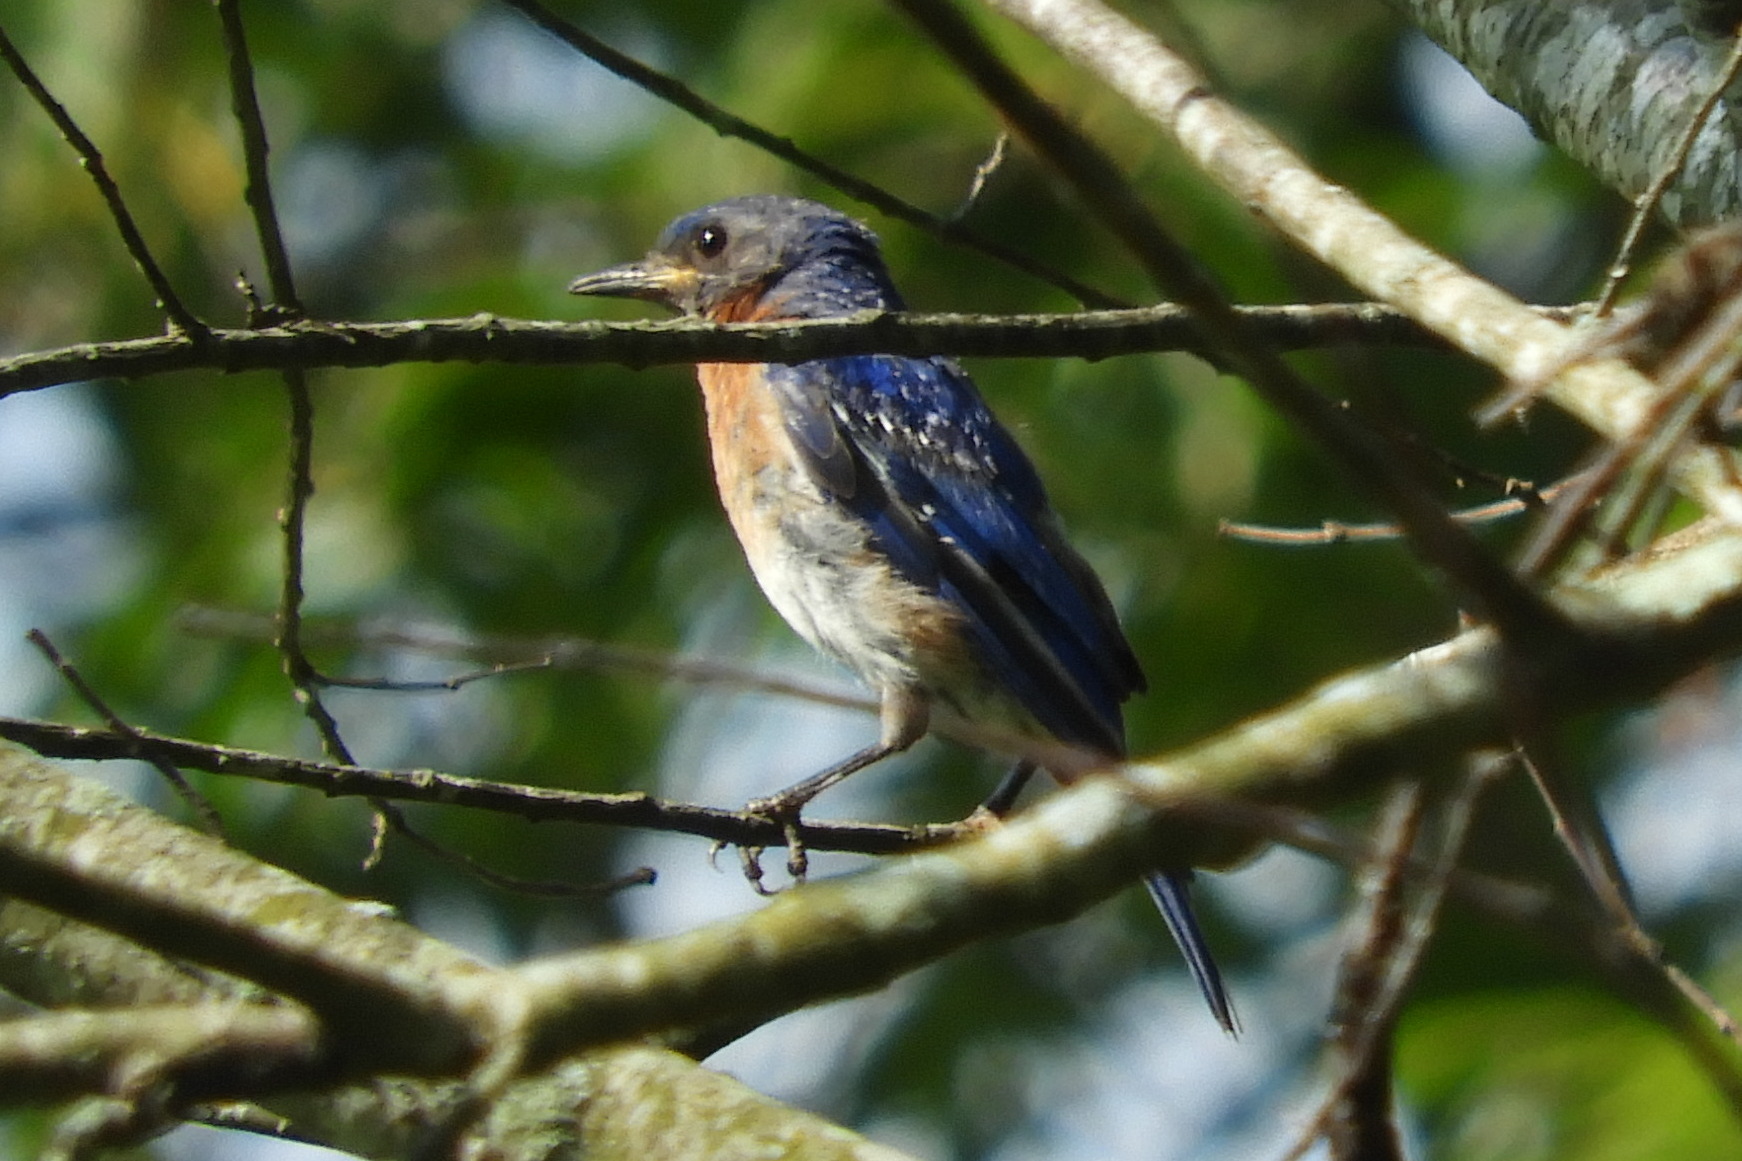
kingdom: Animalia
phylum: Chordata
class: Aves
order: Passeriformes
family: Turdidae
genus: Sialia
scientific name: Sialia sialis
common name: Eastern bluebird
